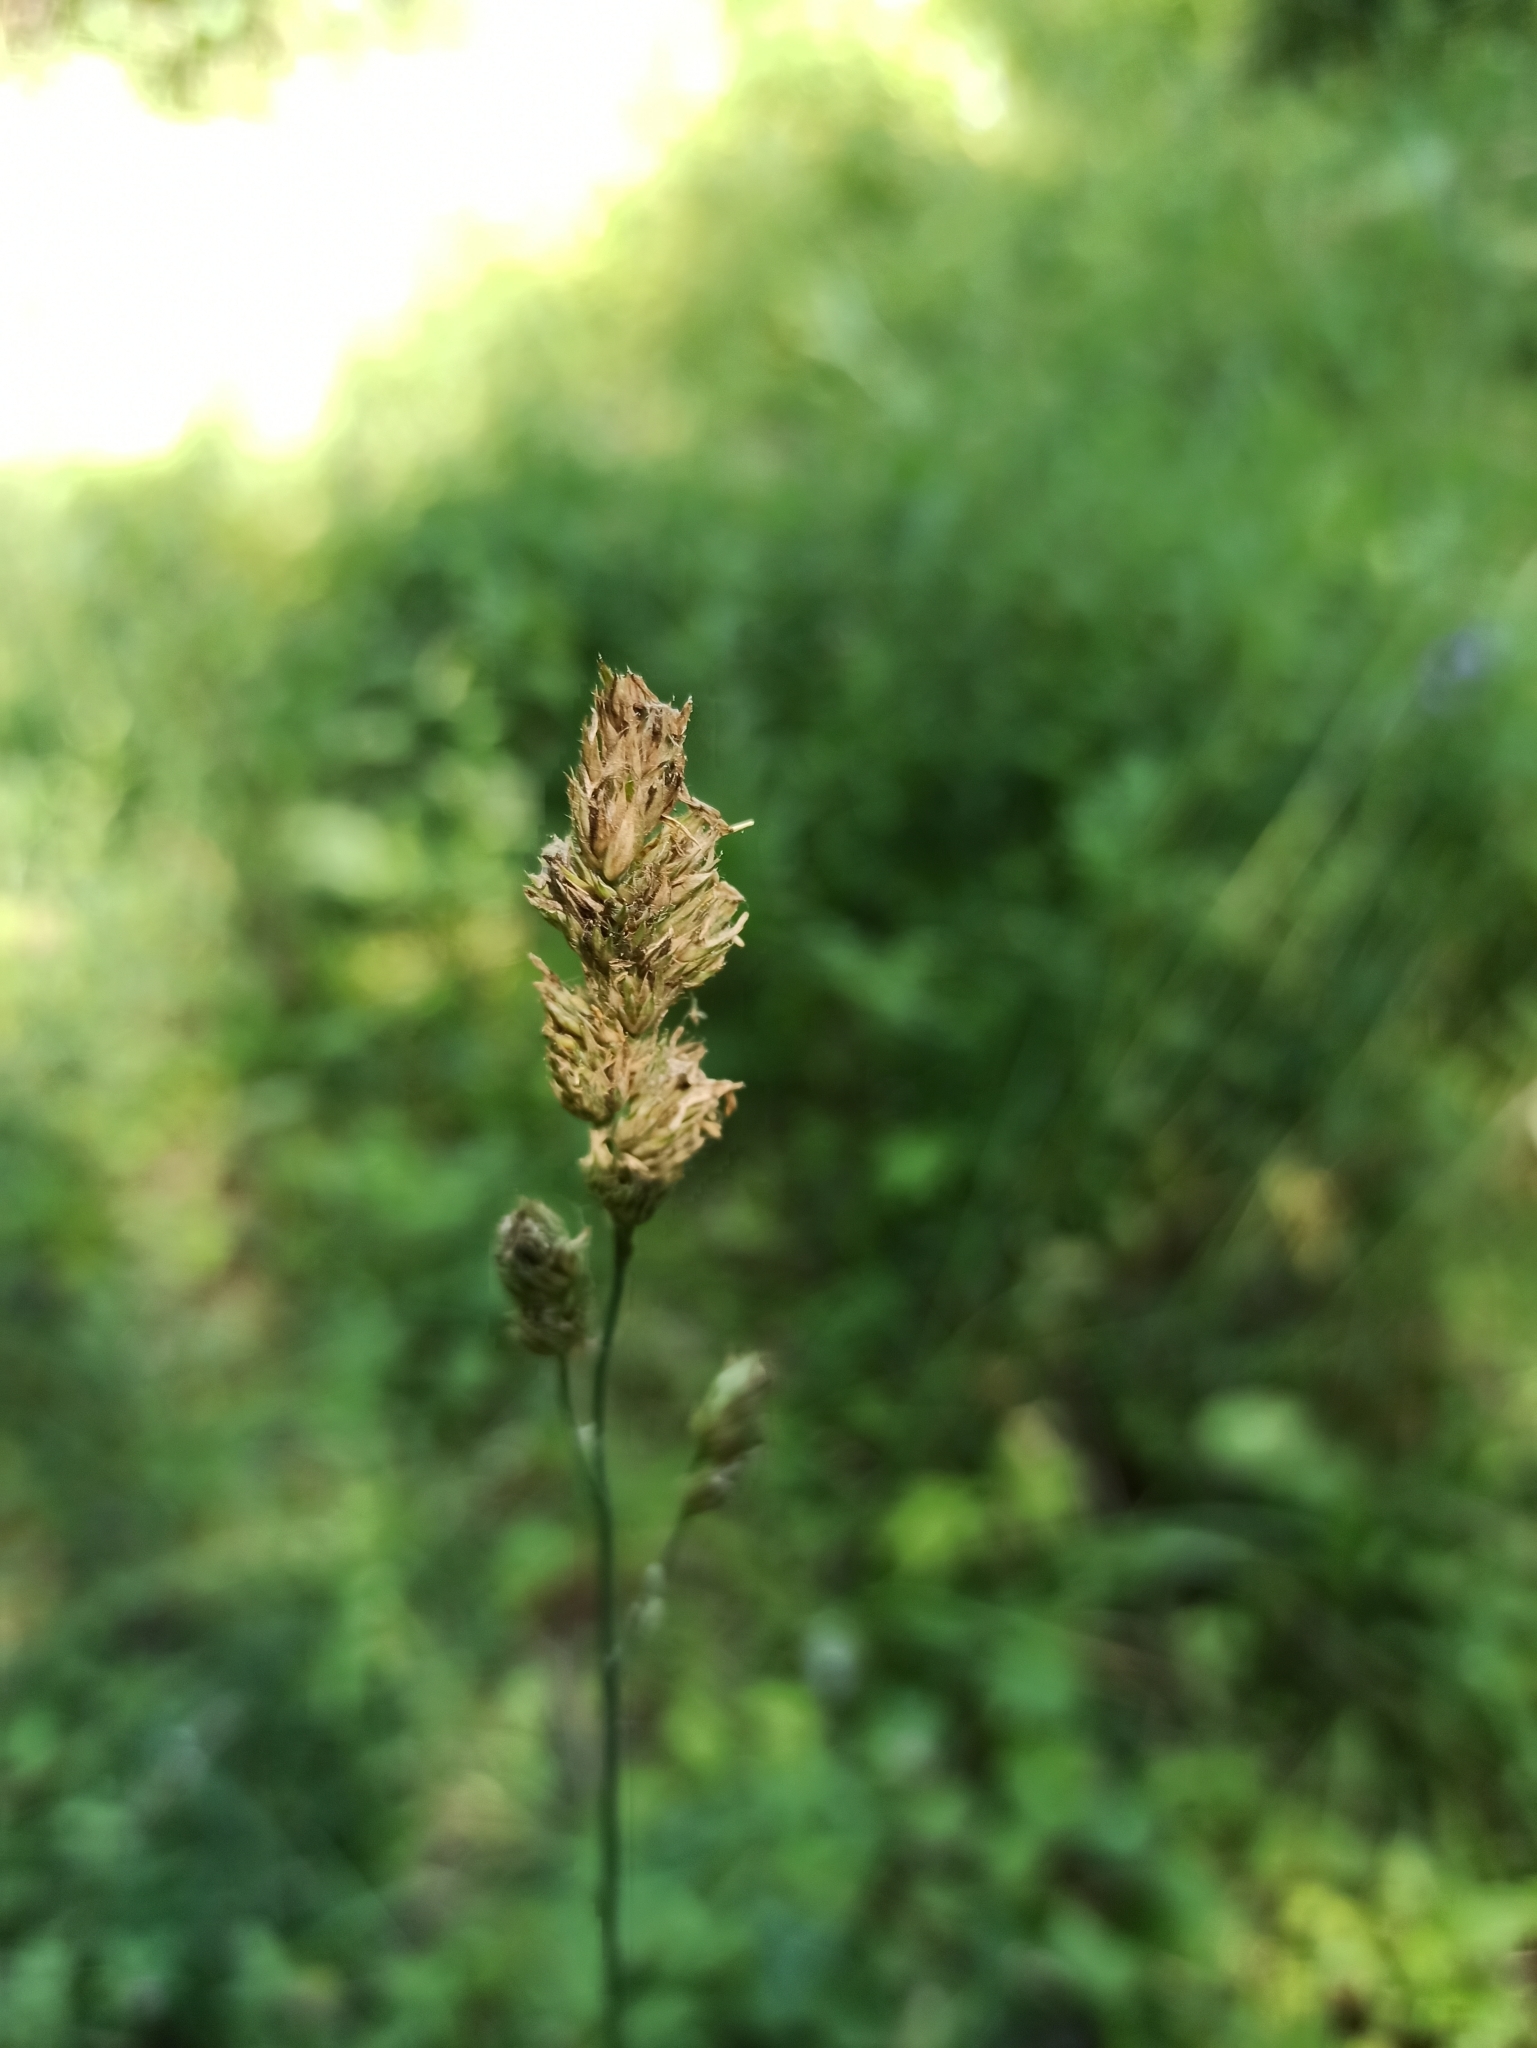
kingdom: Plantae
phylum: Tracheophyta
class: Liliopsida
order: Poales
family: Poaceae
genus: Dactylis
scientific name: Dactylis glomerata
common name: Orchardgrass
